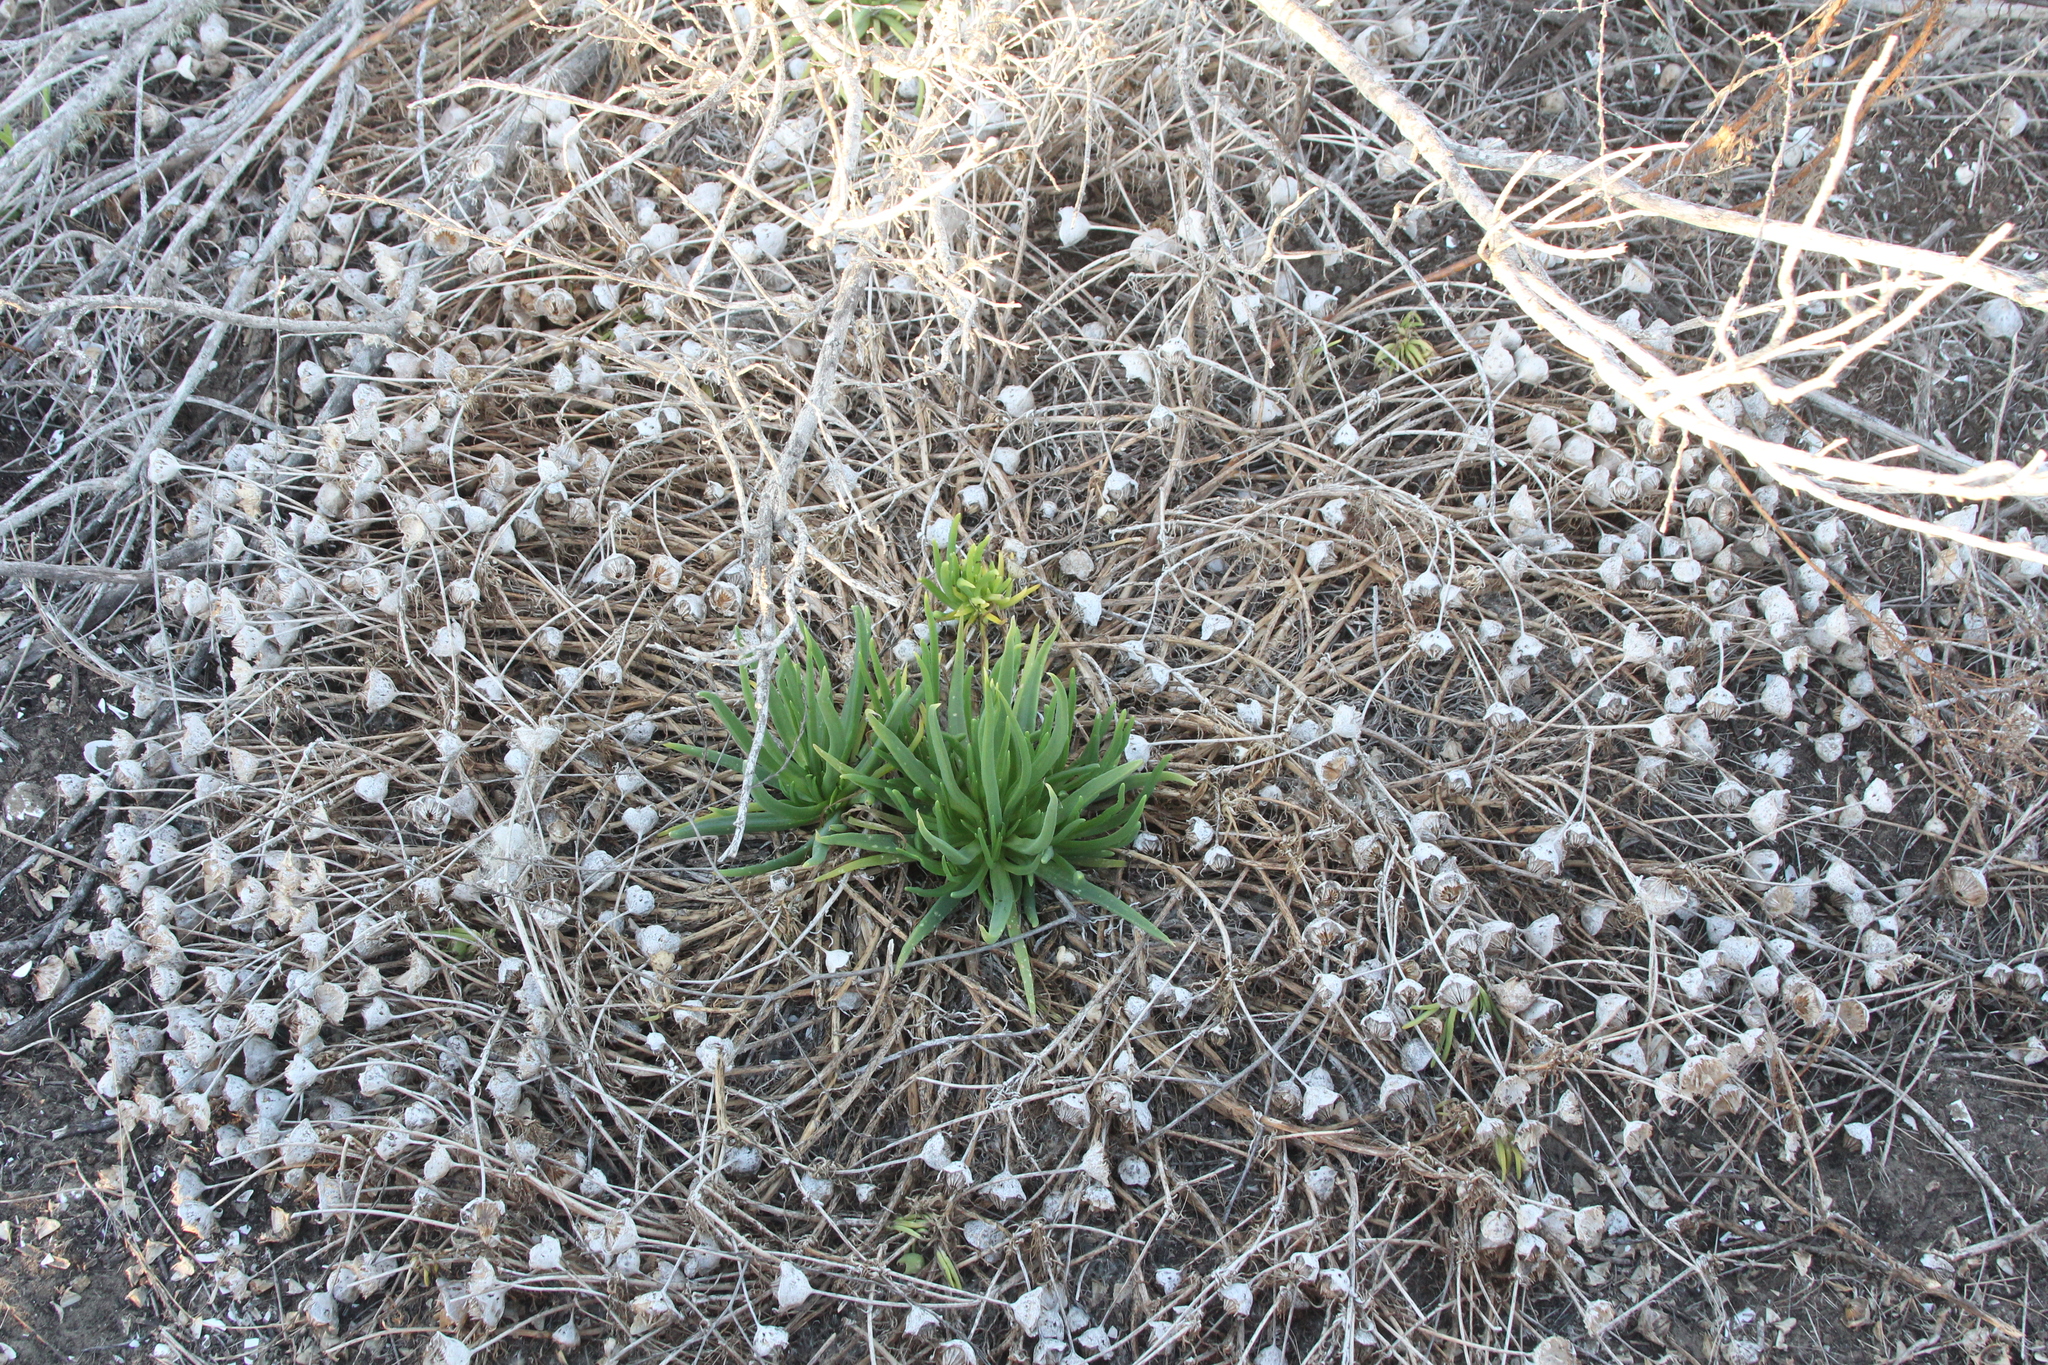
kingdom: Plantae
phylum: Tracheophyta
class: Magnoliopsida
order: Caryophyllales
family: Aizoaceae
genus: Conicosia
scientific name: Conicosia pugioniformis
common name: Narrow-leaved iceplant
